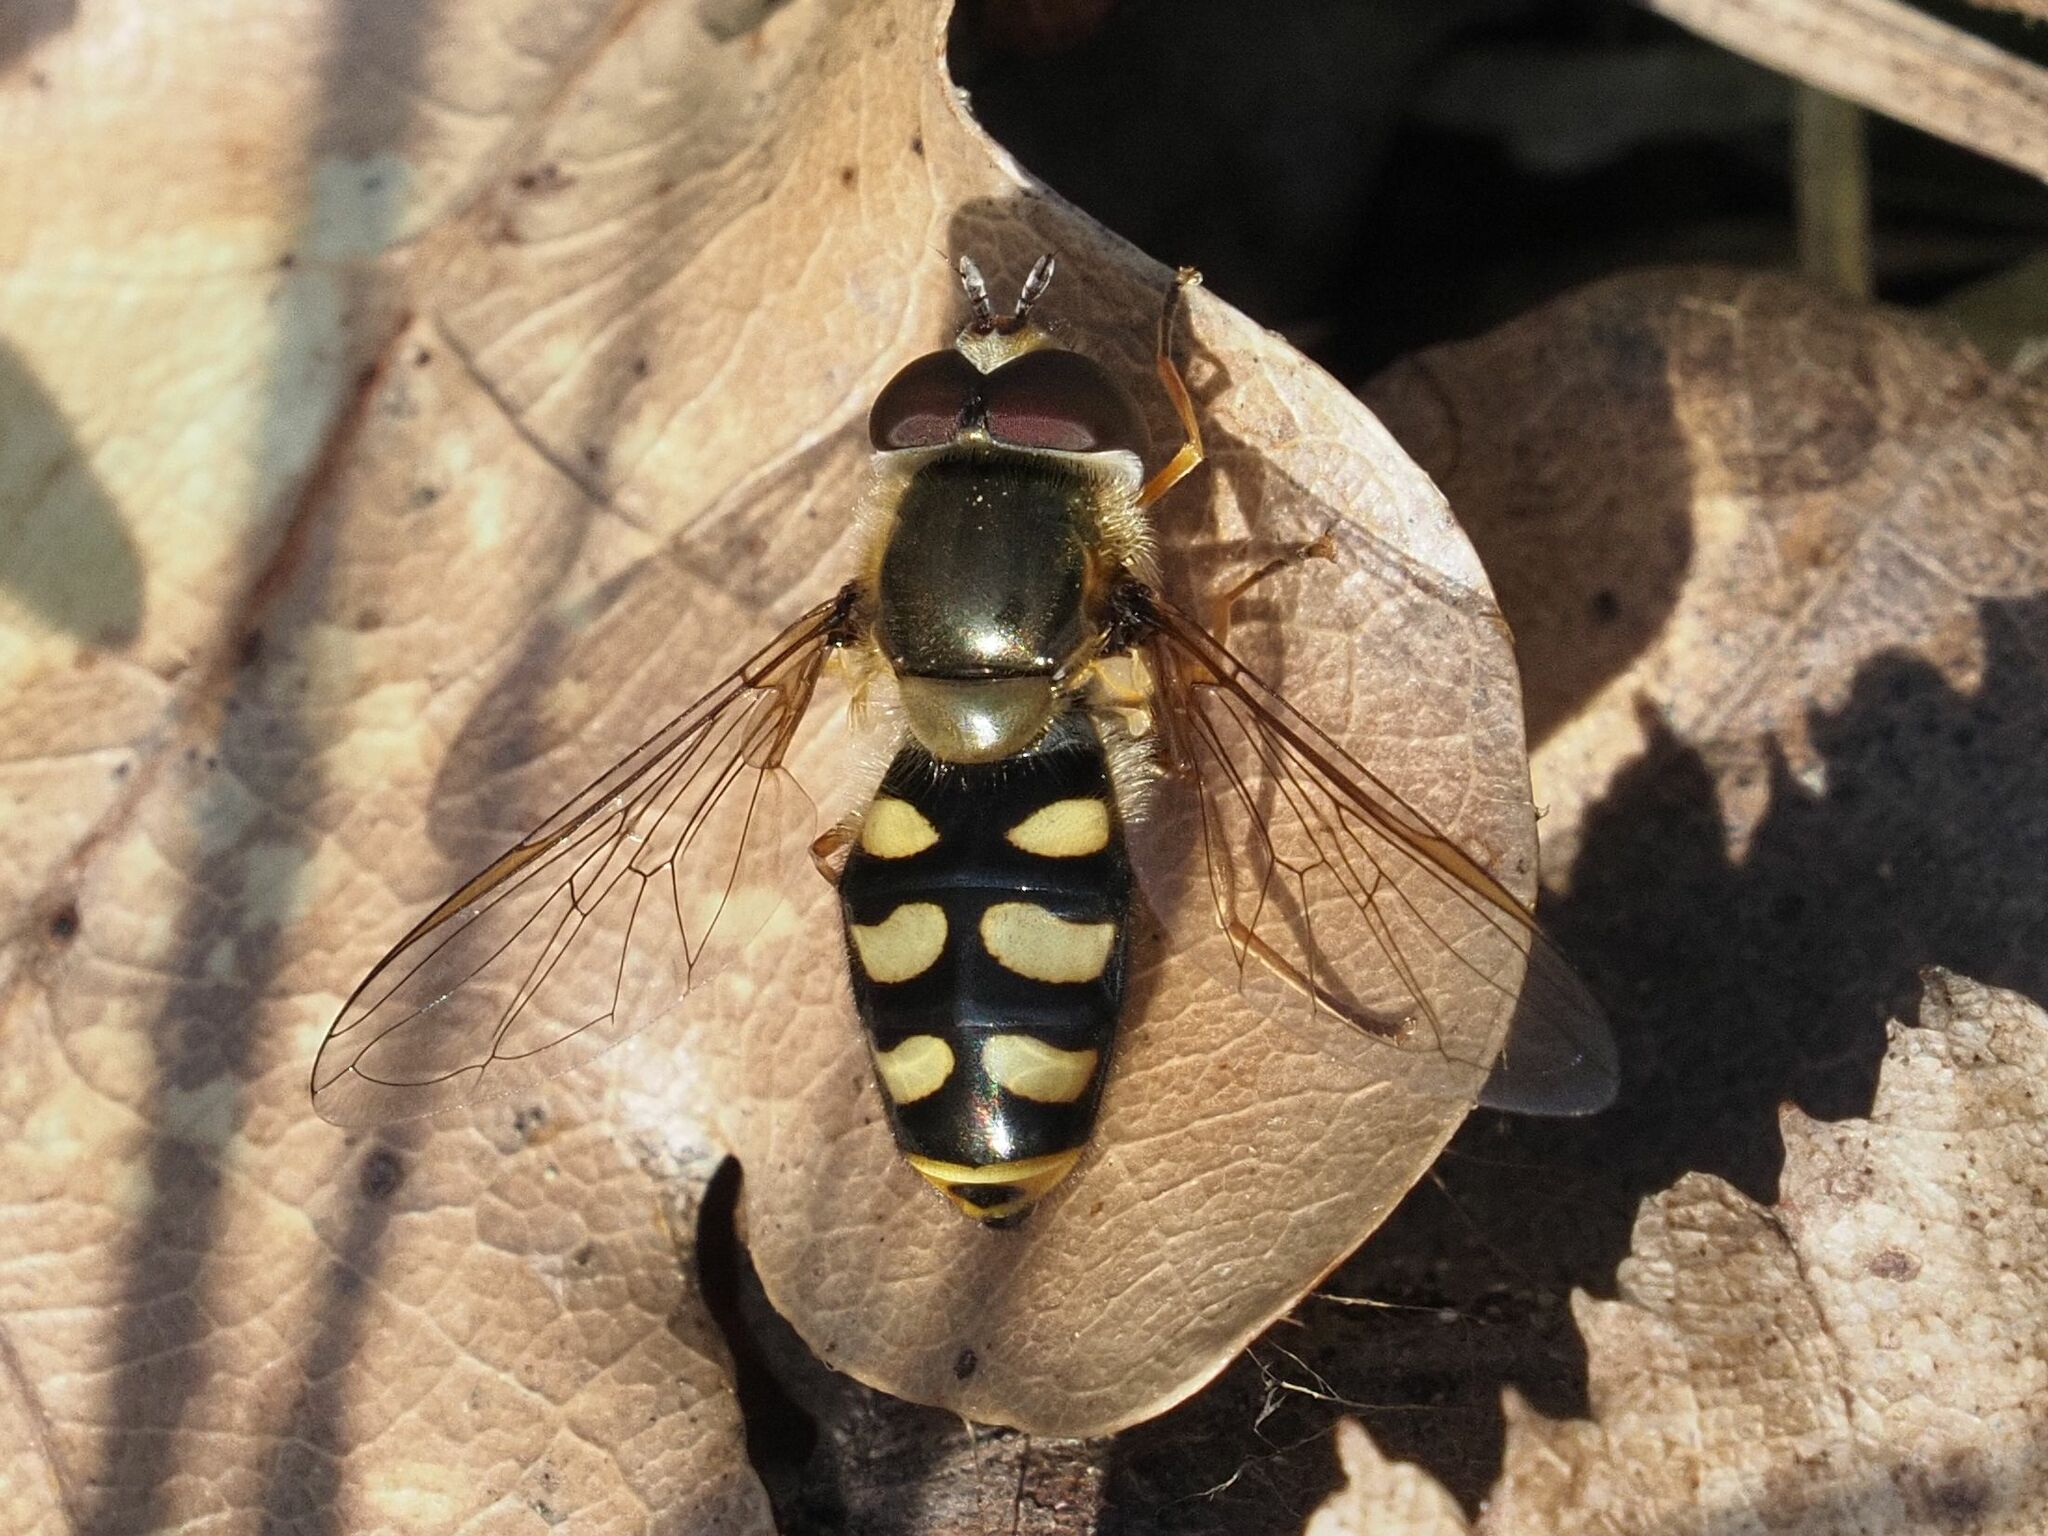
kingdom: Animalia
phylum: Arthropoda
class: Insecta
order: Diptera
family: Syrphidae
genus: Eupeodes
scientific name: Eupeodes luniger
